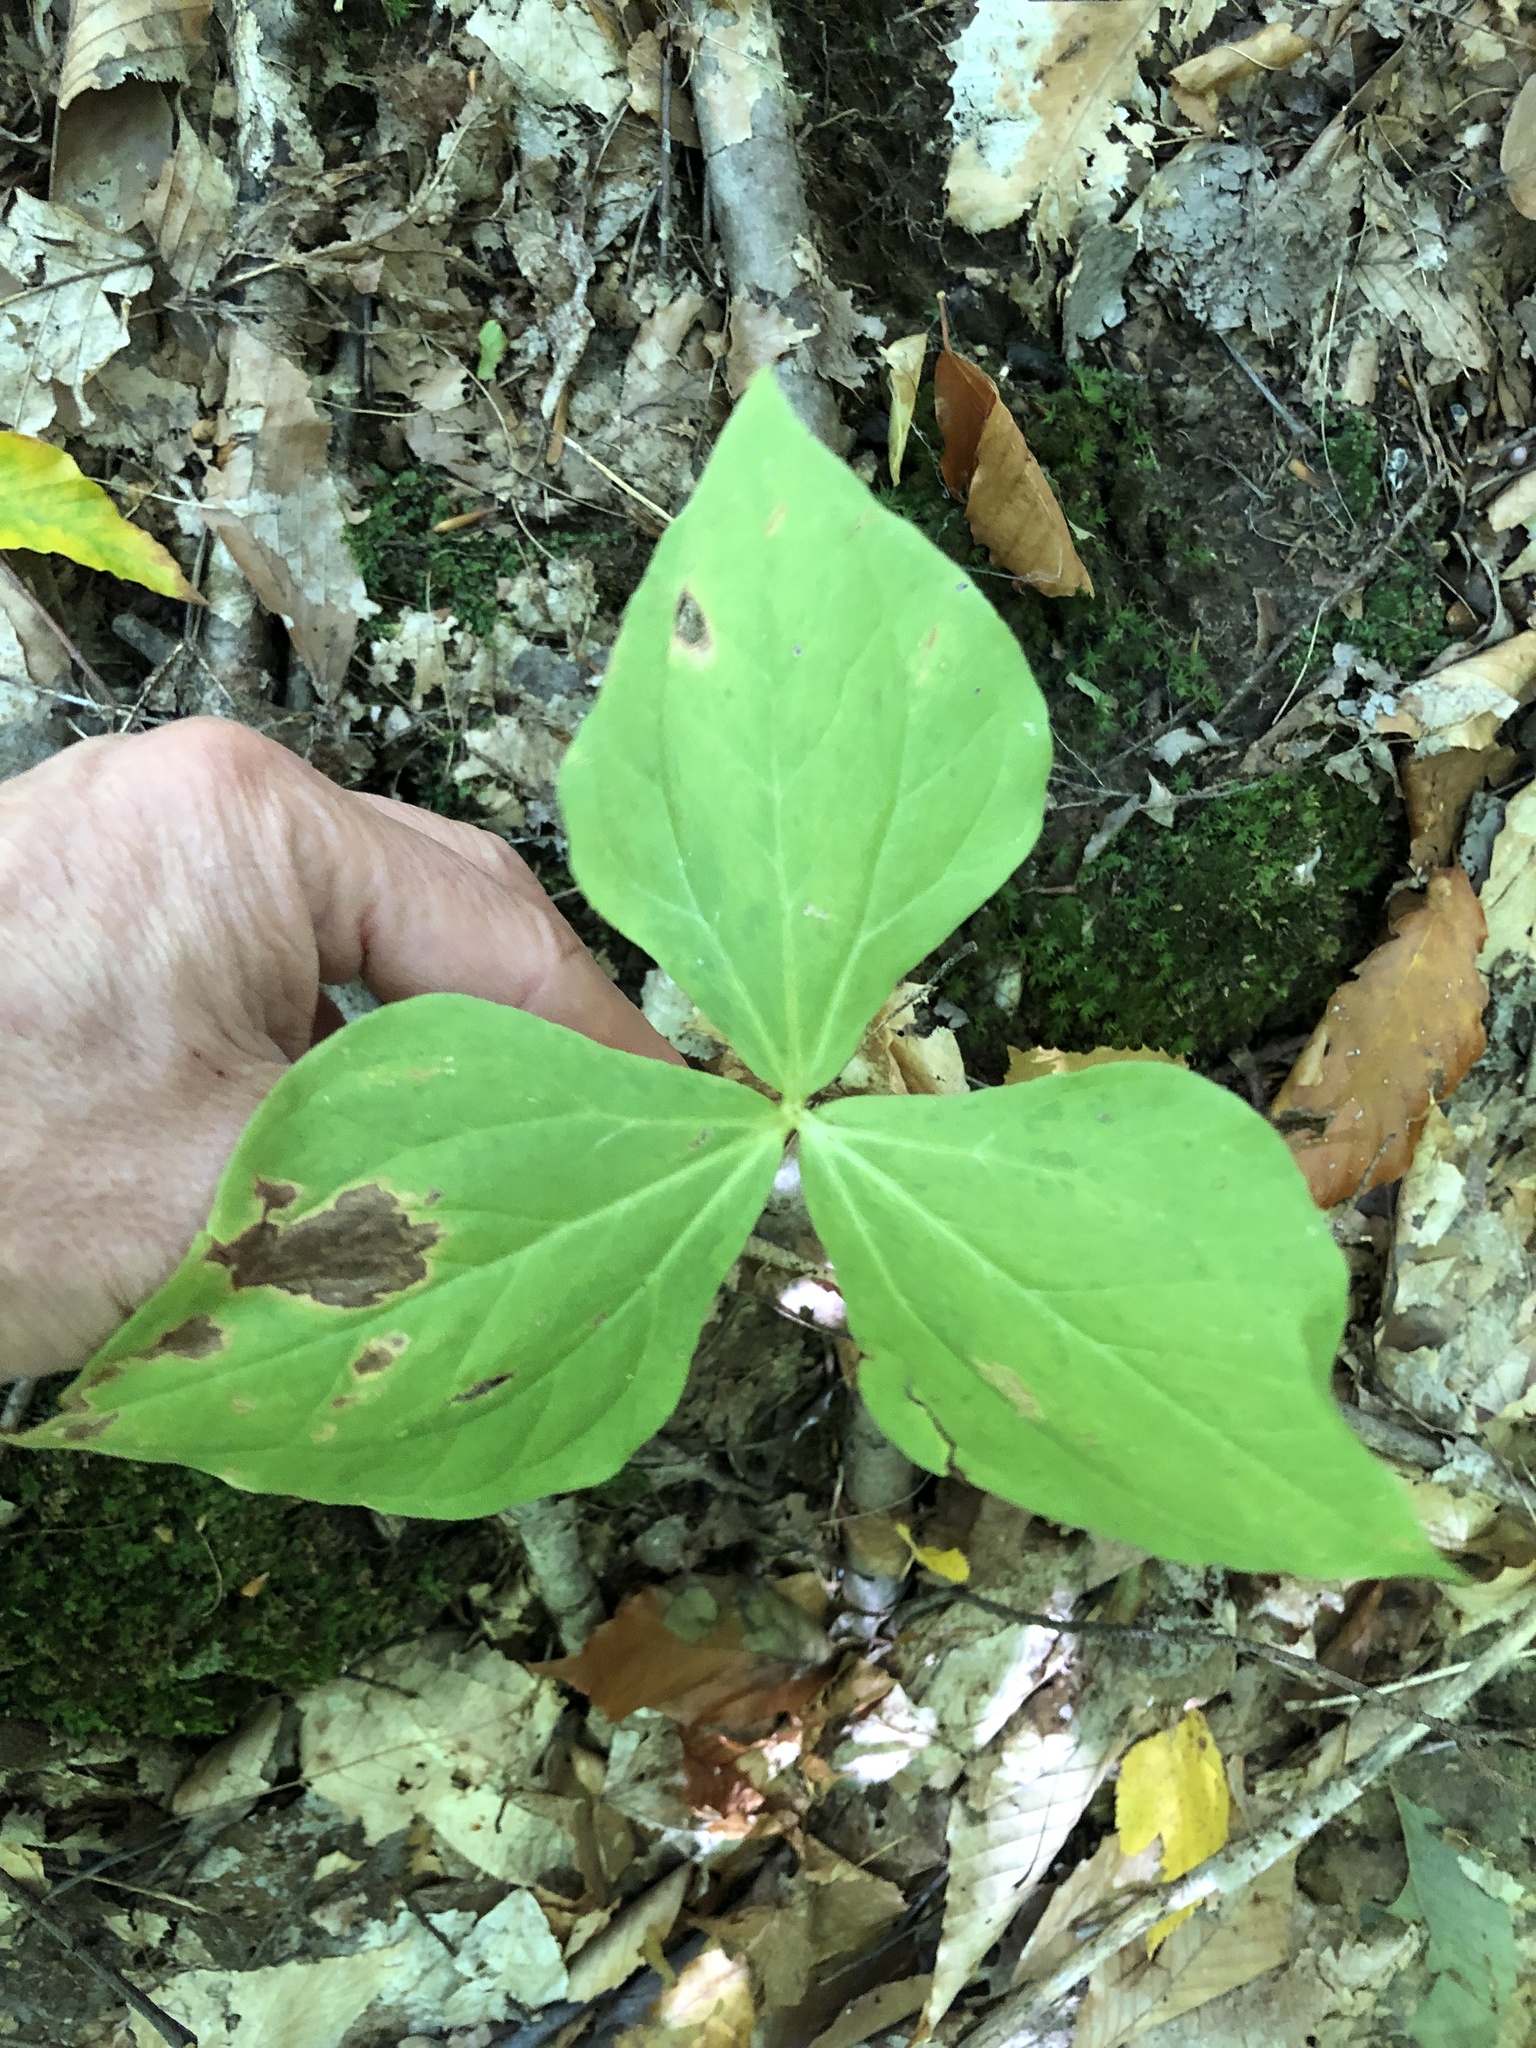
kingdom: Plantae
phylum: Tracheophyta
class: Liliopsida
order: Liliales
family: Melanthiaceae
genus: Trillium
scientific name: Trillium erectum
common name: Purple trillium
